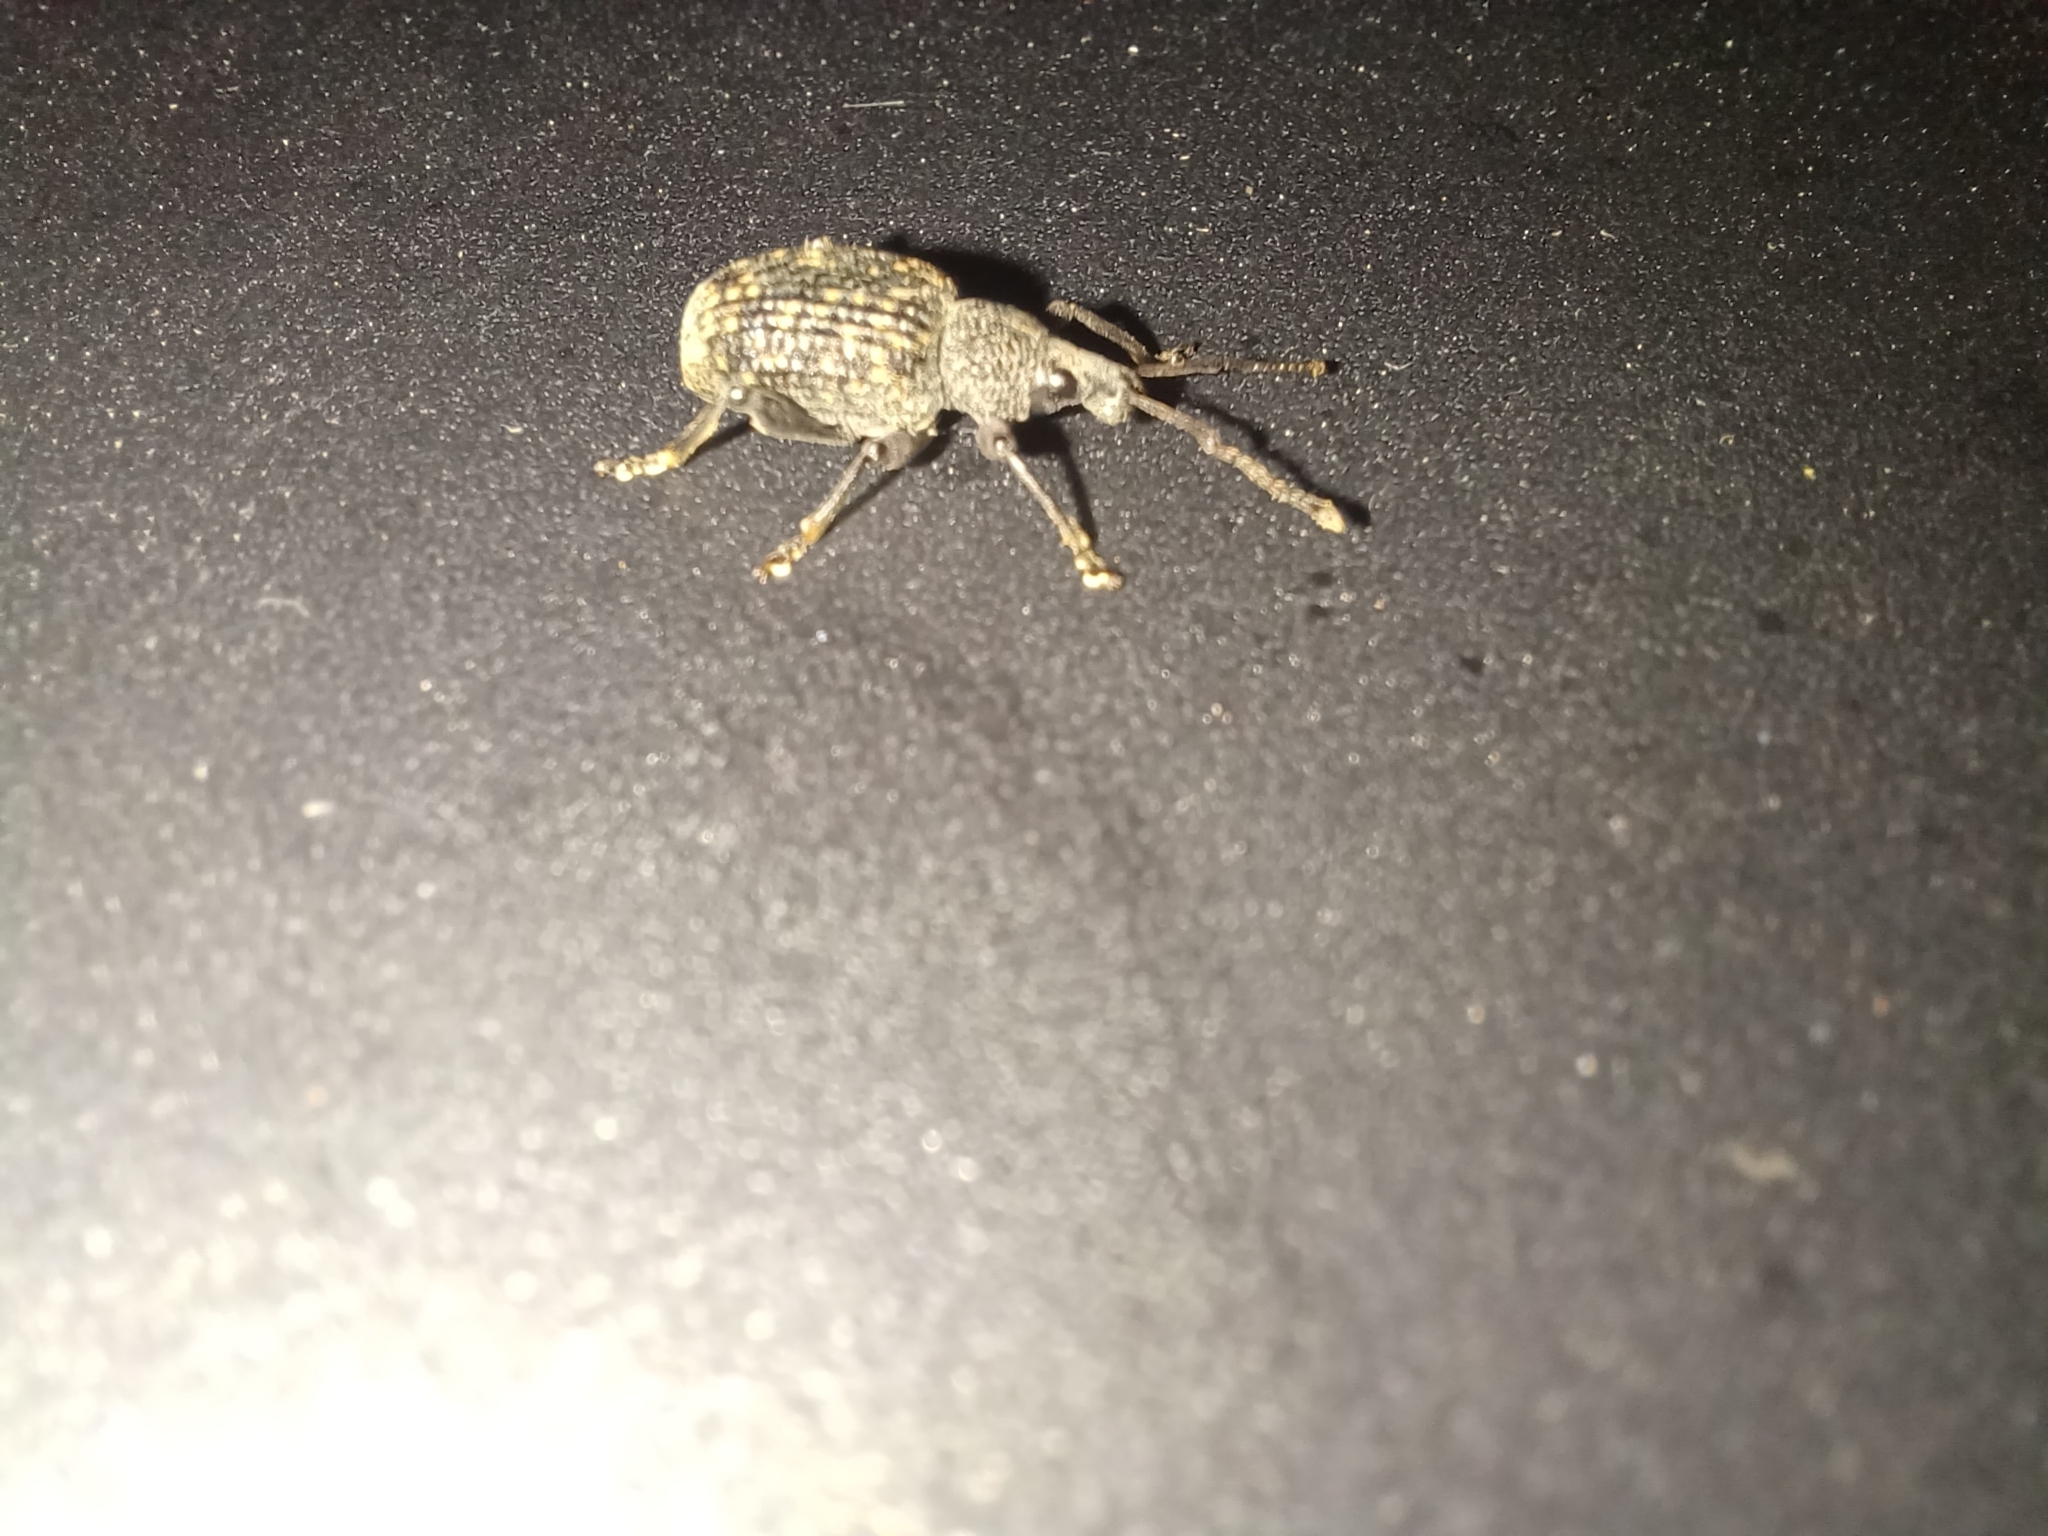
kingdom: Animalia
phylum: Arthropoda
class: Insecta
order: Coleoptera
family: Curculionidae
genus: Otiorhynchus
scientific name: Otiorhynchus sulcatus
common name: Black vine weevil
